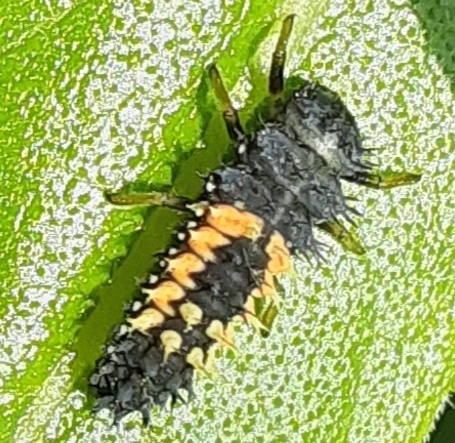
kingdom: Animalia
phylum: Arthropoda
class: Insecta
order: Coleoptera
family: Coccinellidae
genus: Harmonia
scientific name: Harmonia axyridis
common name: Harlequin ladybird
